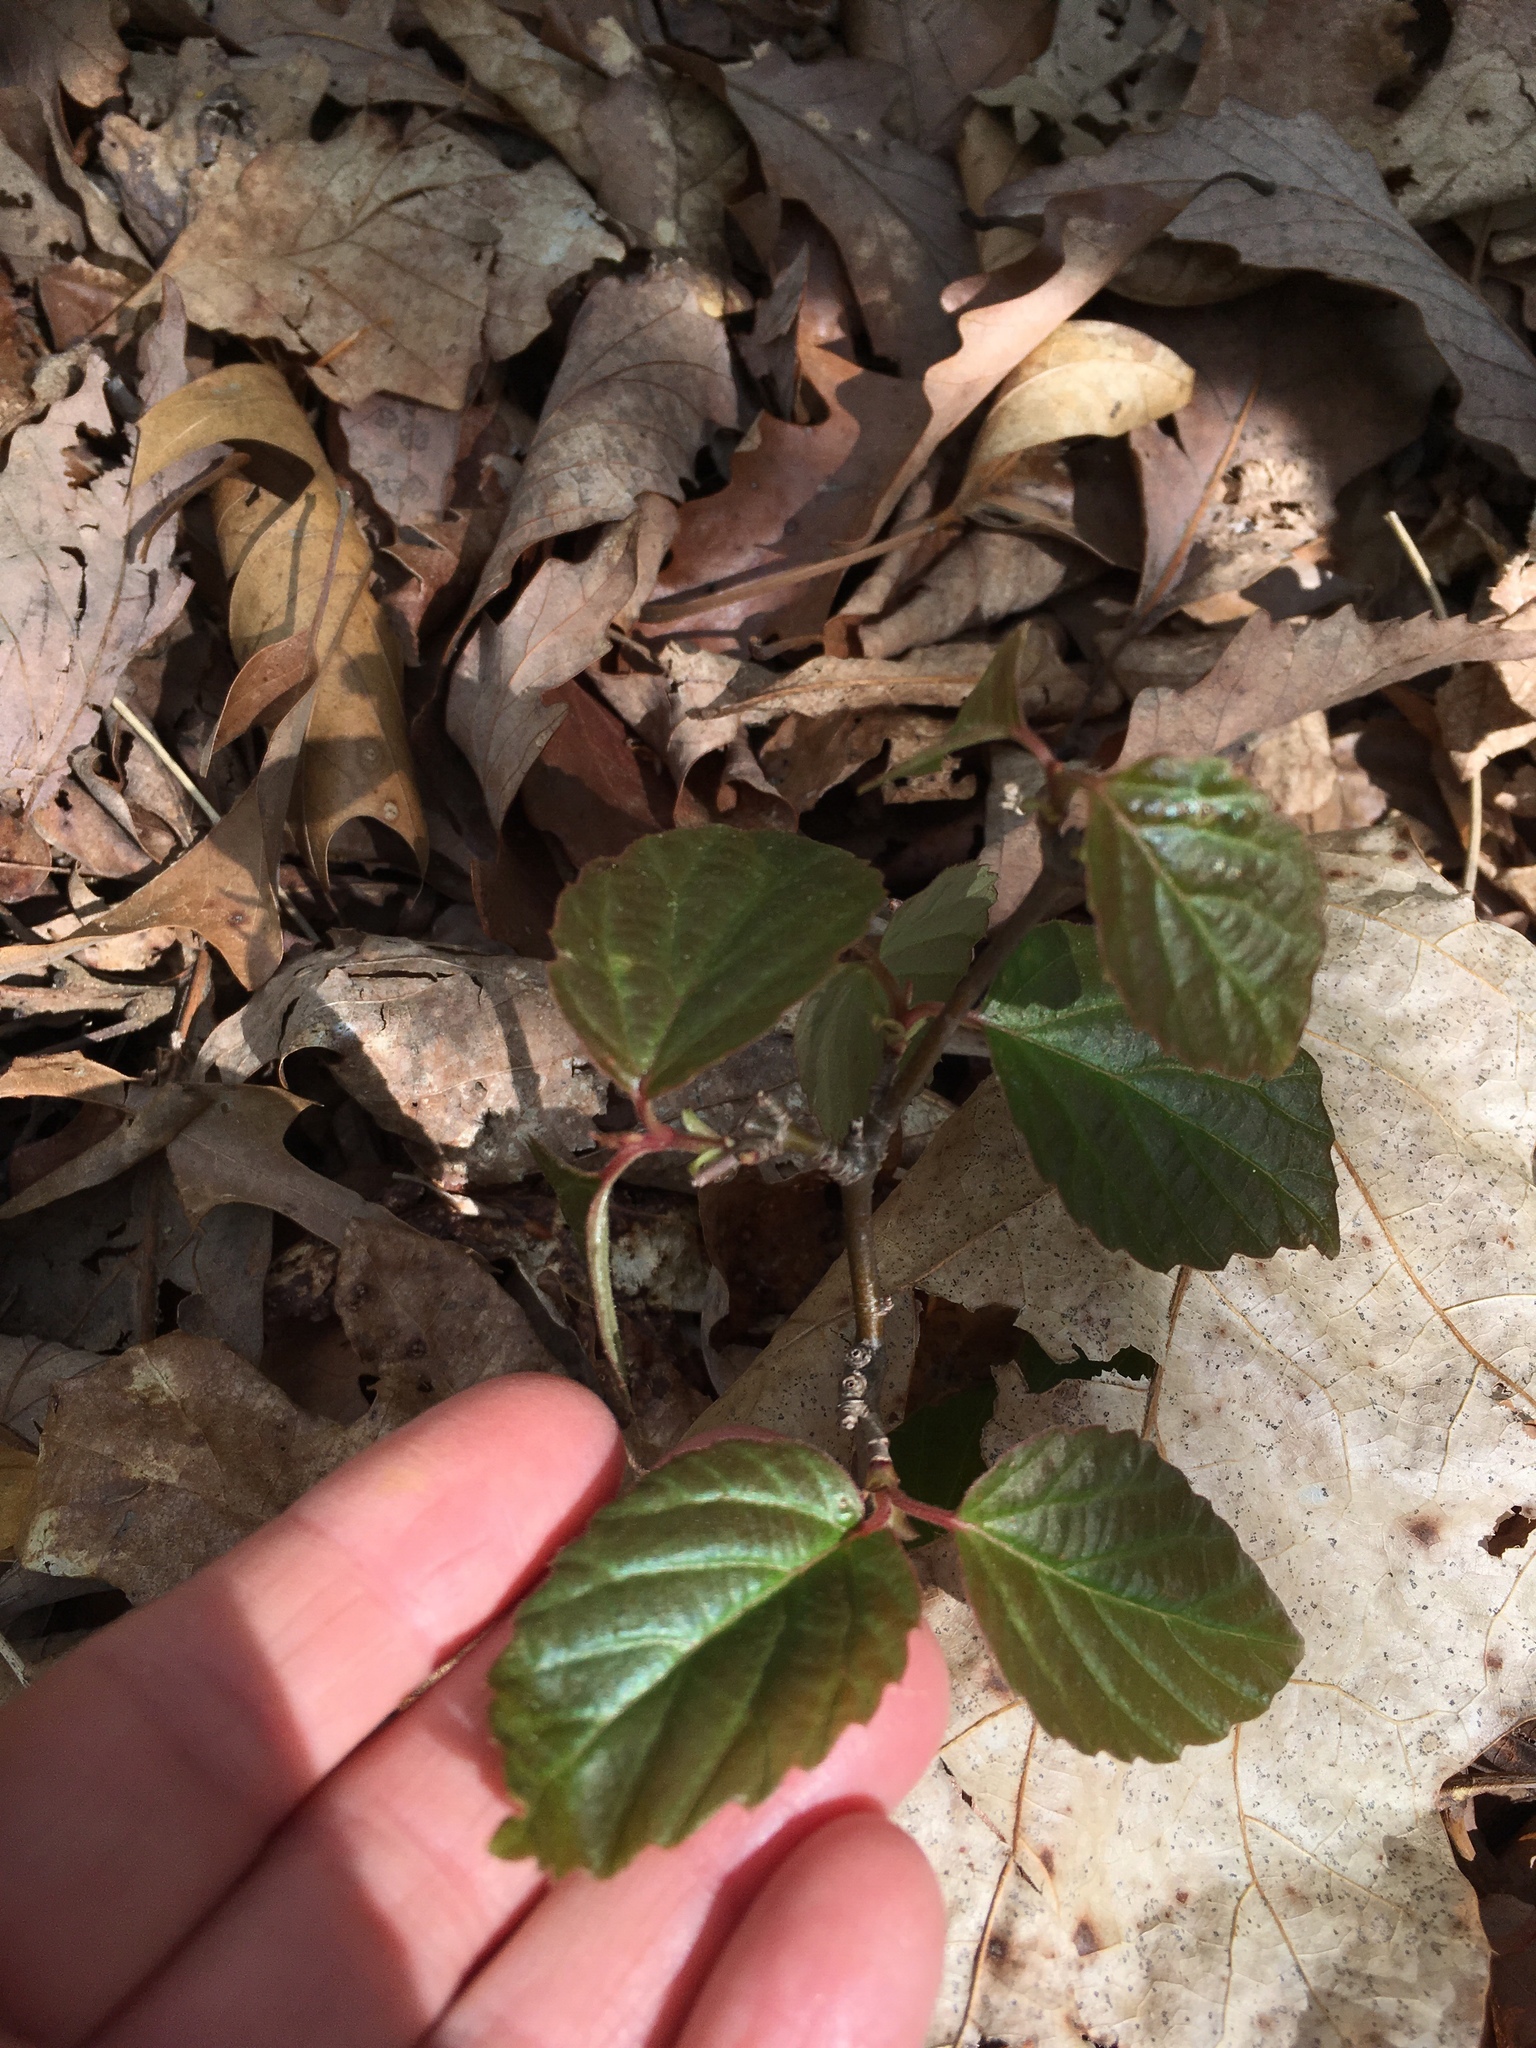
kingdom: Plantae
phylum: Tracheophyta
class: Magnoliopsida
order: Dipsacales
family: Viburnaceae
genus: Viburnum
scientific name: Viburnum dentatum
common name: Arrow-wood
